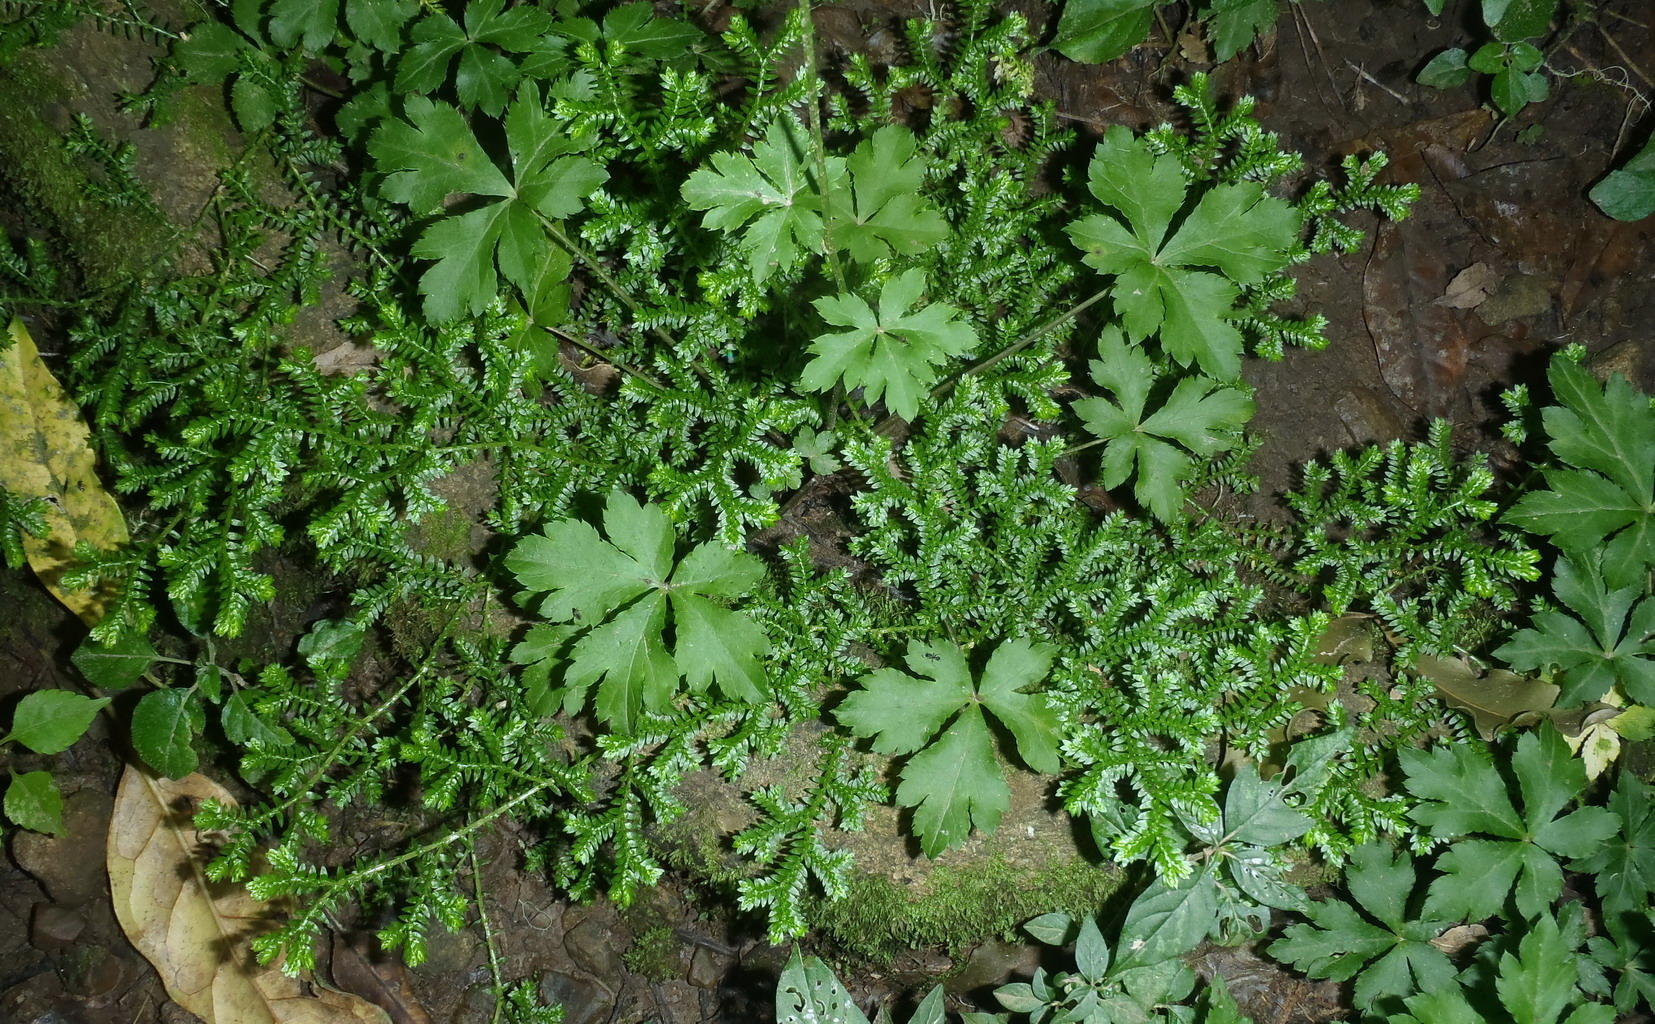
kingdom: Plantae
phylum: Tracheophyta
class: Lycopodiopsida
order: Selaginellales
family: Selaginellaceae
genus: Selaginella
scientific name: Selaginella kraussiana
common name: Krauss' spikemoss
